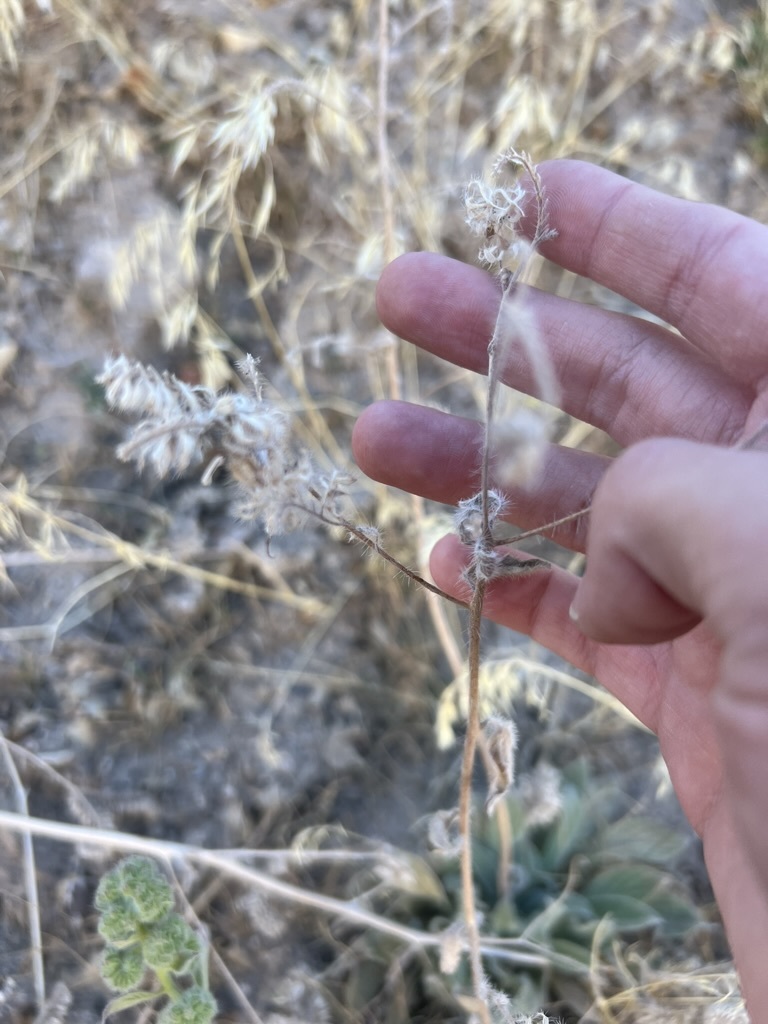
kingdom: Plantae
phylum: Tracheophyta
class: Magnoliopsida
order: Boraginales
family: Hydrophyllaceae
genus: Phacelia
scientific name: Phacelia imbricata
